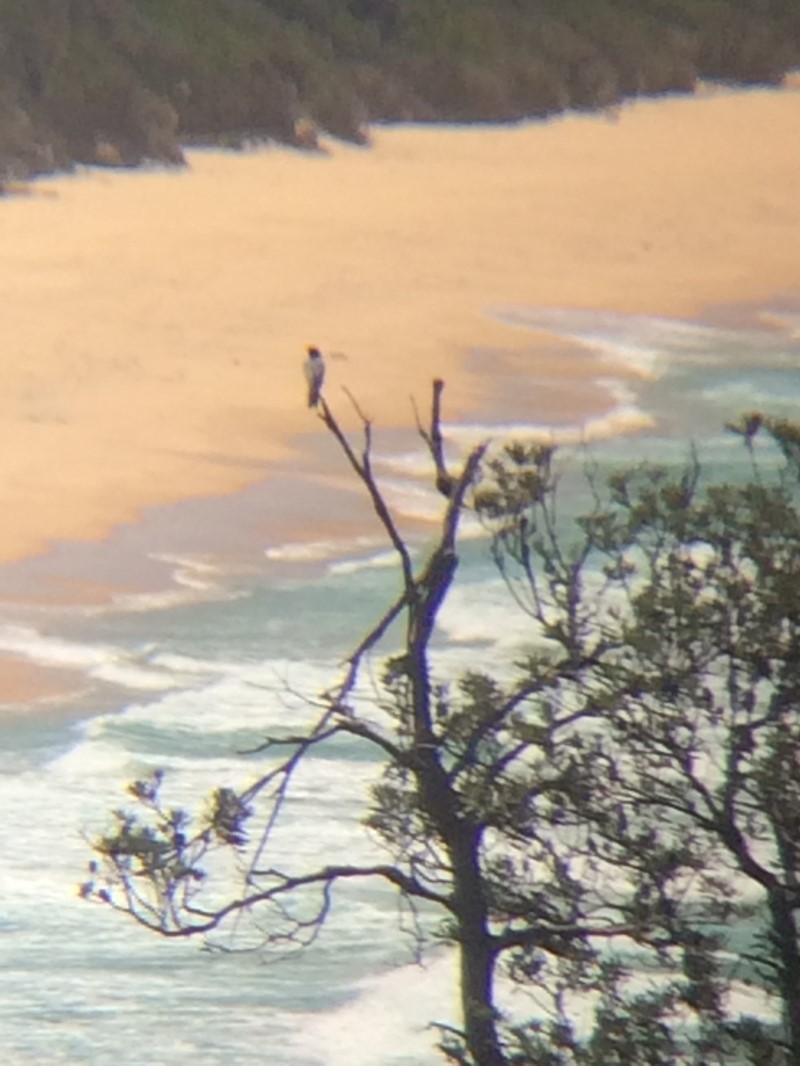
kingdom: Animalia
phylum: Chordata
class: Aves
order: Passeriformes
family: Campephagidae
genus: Coracina
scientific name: Coracina novaehollandiae
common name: Black-faced cuckooshrike
